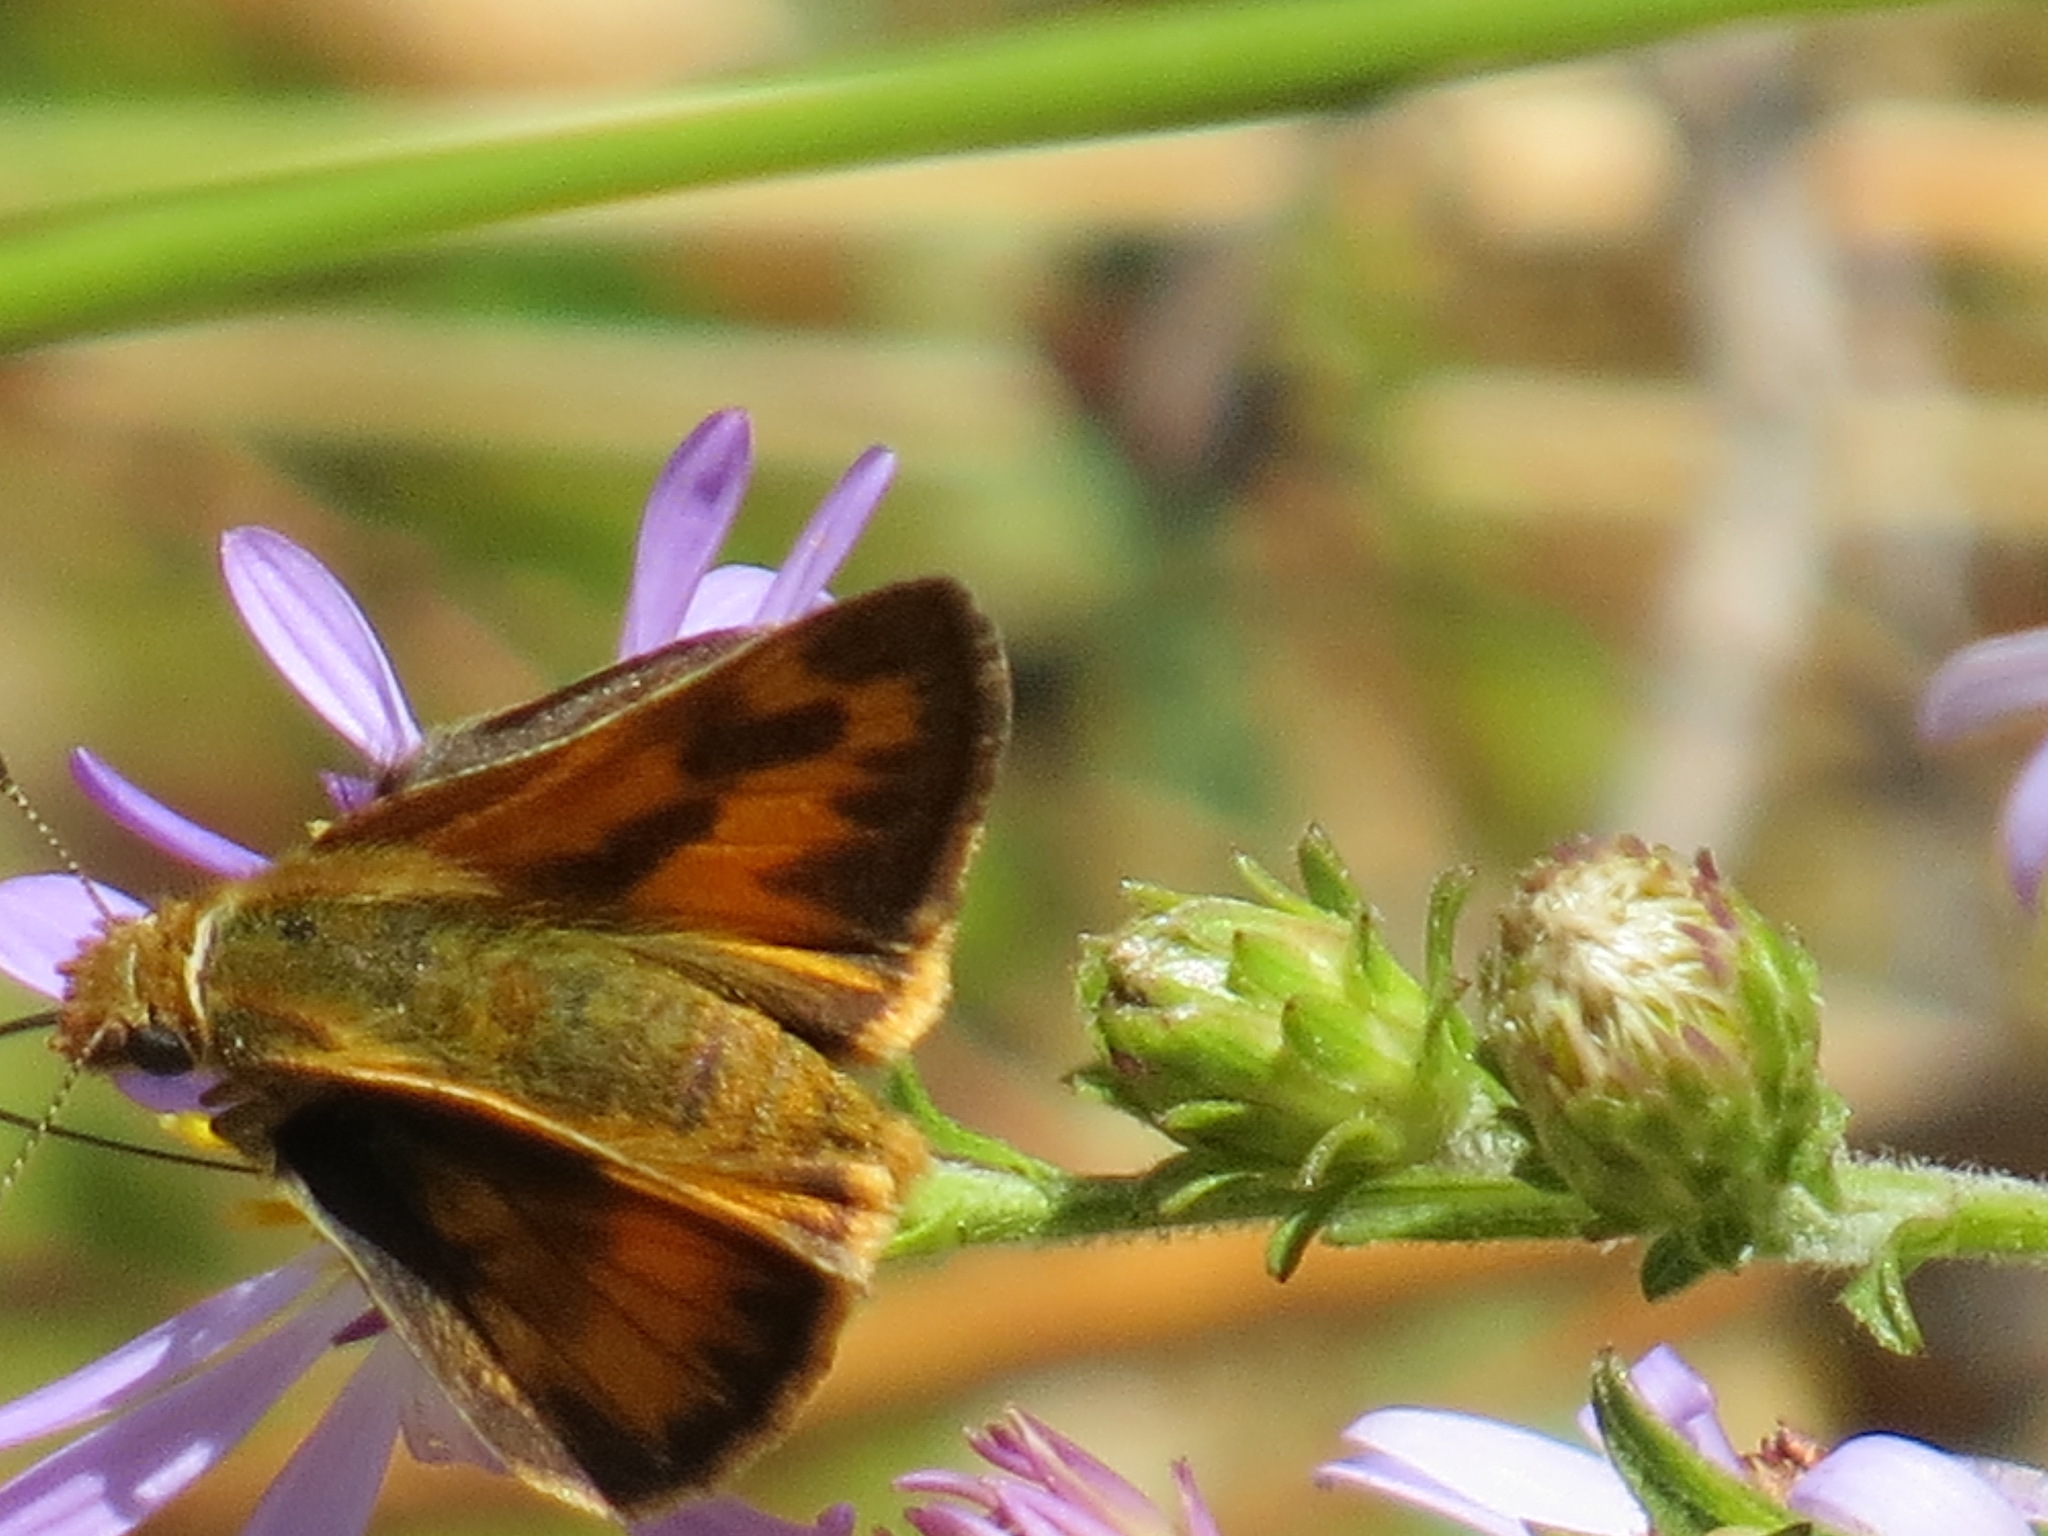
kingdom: Animalia
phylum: Arthropoda
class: Insecta
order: Lepidoptera
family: Hesperiidae
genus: Ochlodes
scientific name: Ochlodes sylvanoides
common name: Woodland skipper
